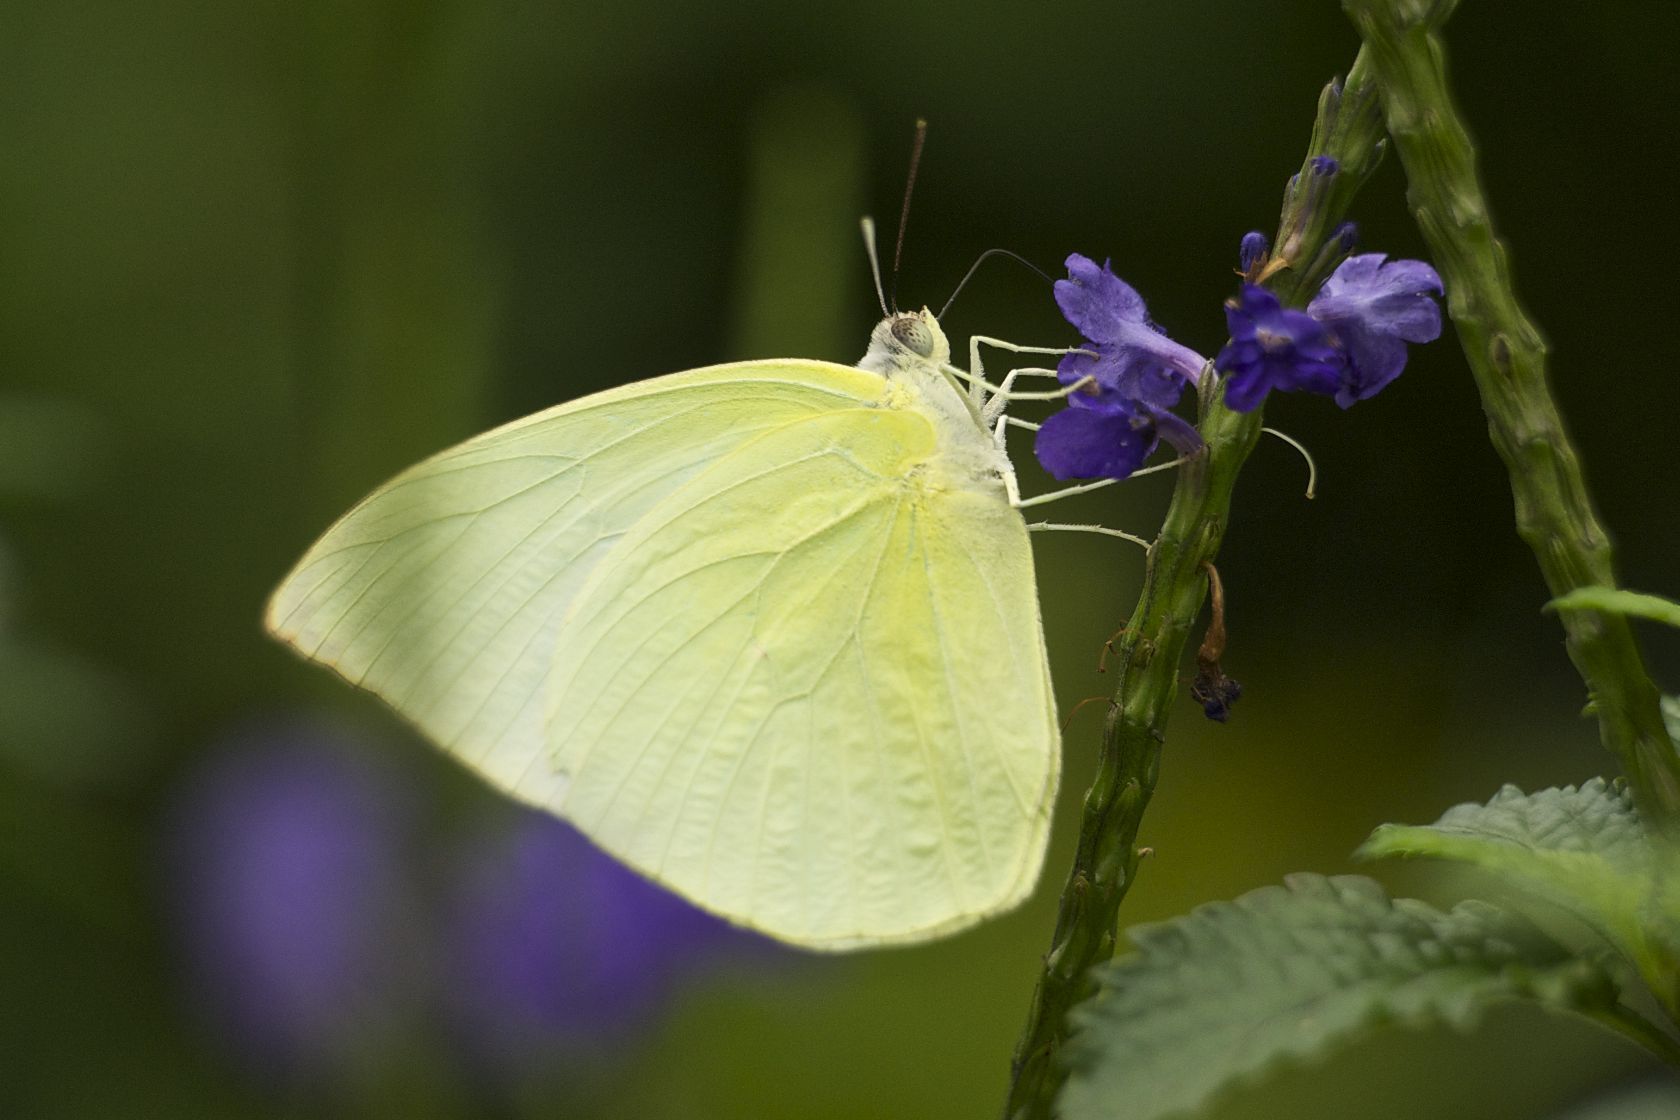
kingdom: Animalia
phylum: Arthropoda
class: Insecta
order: Lepidoptera
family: Pieridae
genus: Catopsilia
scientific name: Catopsilia pomona
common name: Common emigrant
